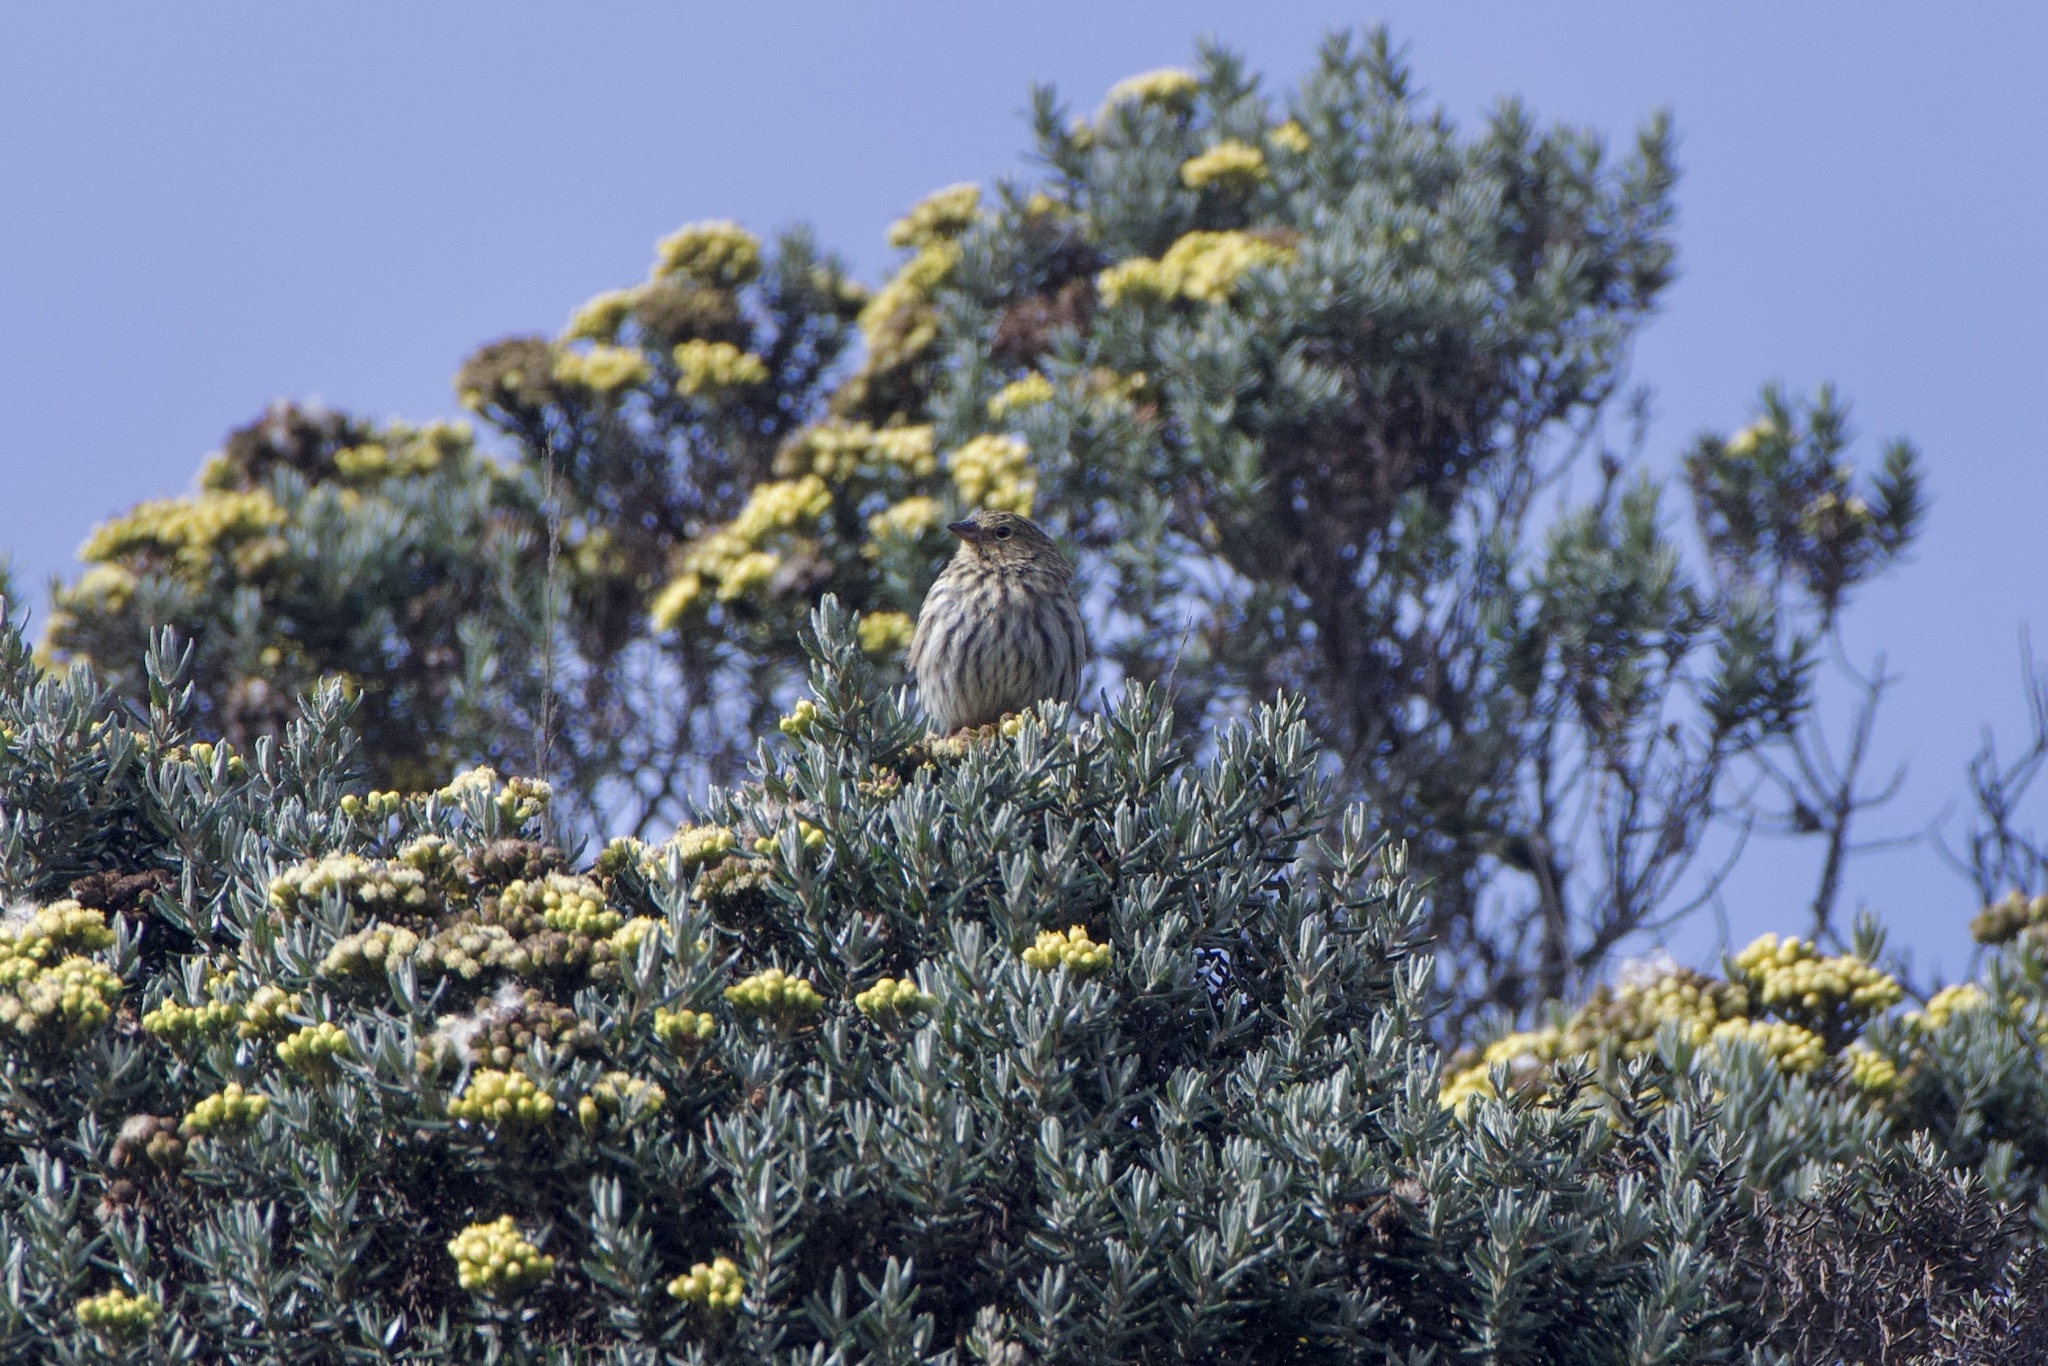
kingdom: Animalia
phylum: Chordata
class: Aves
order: Passeriformes
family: Thraupidae
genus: Geospizopsis
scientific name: Geospizopsis unicolor
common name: Plumbeous sierra-finch
